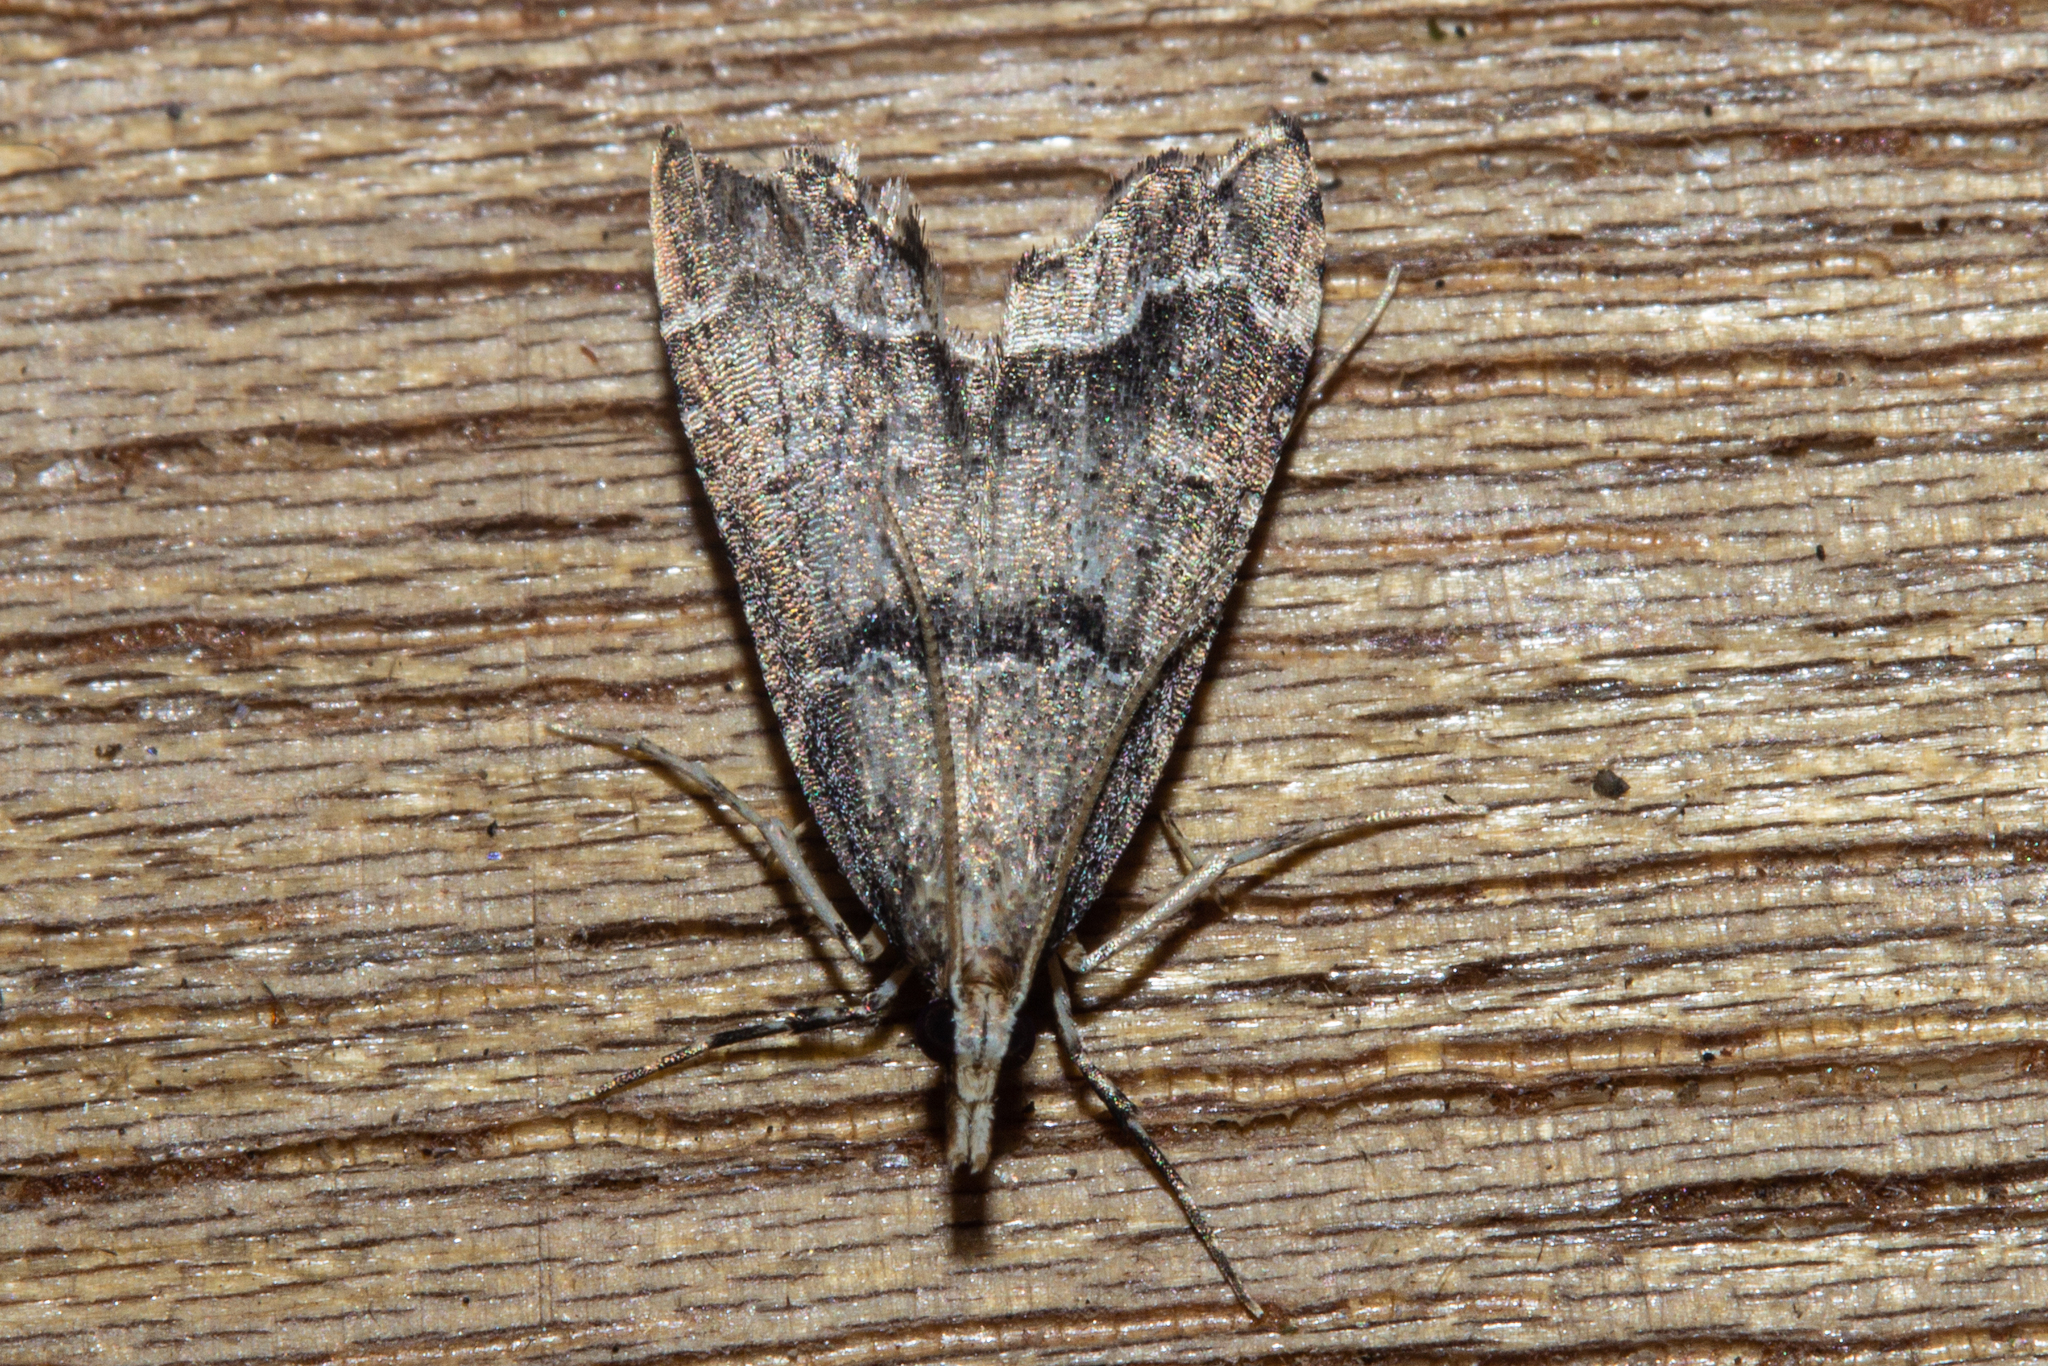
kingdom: Animalia
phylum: Arthropoda
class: Insecta
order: Lepidoptera
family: Crambidae
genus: Diplopseustis
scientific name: Diplopseustis perieresalis
